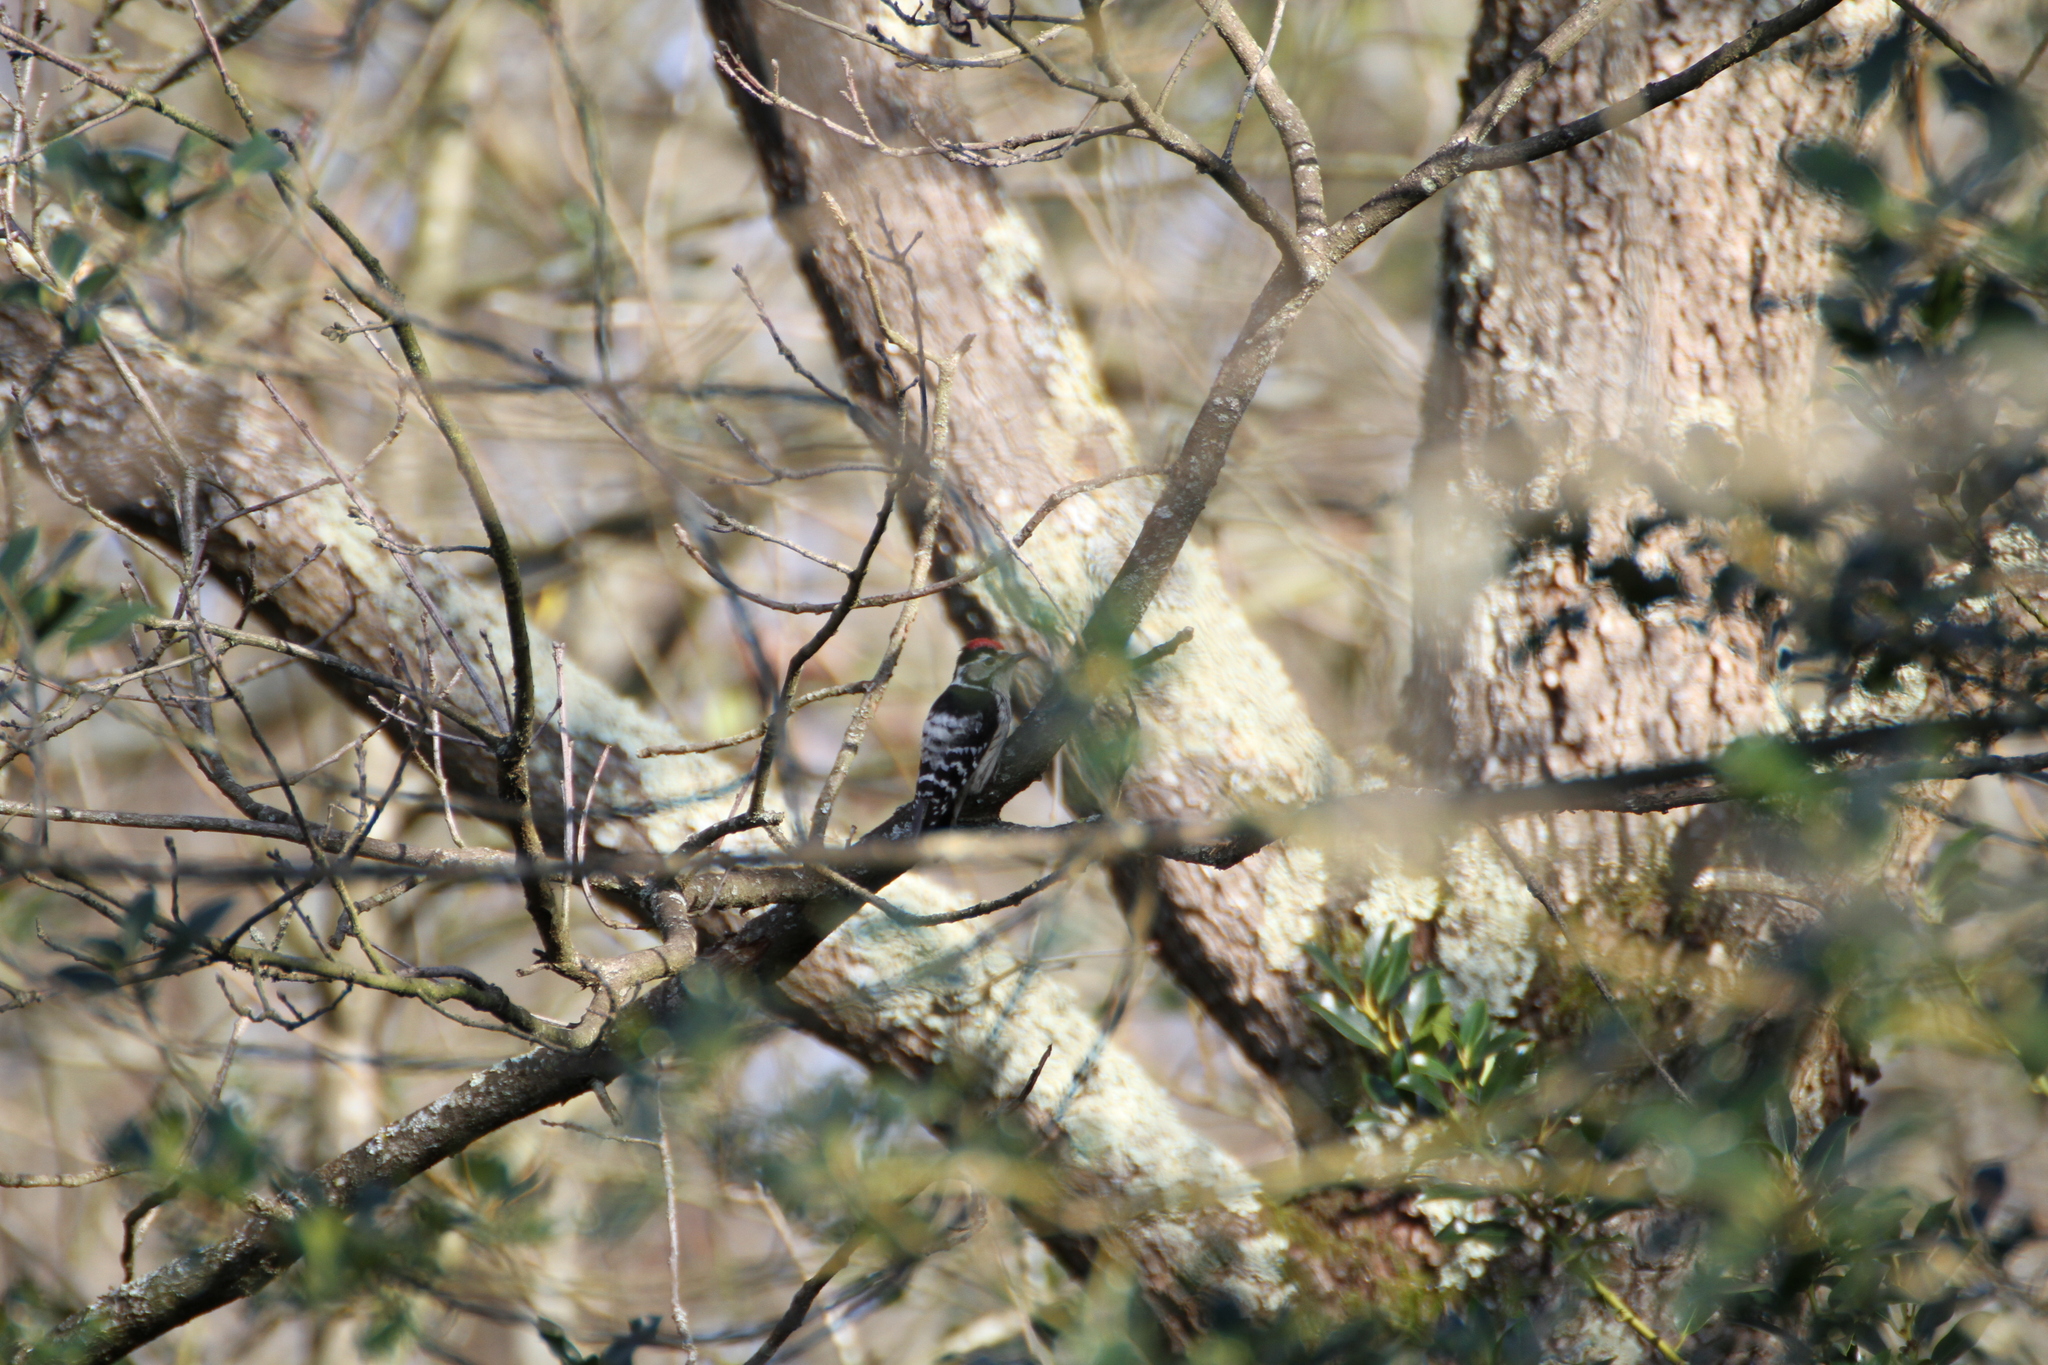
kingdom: Animalia
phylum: Chordata
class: Aves
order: Piciformes
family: Picidae
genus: Dryobates
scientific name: Dryobates minor
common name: Lesser spotted woodpecker
